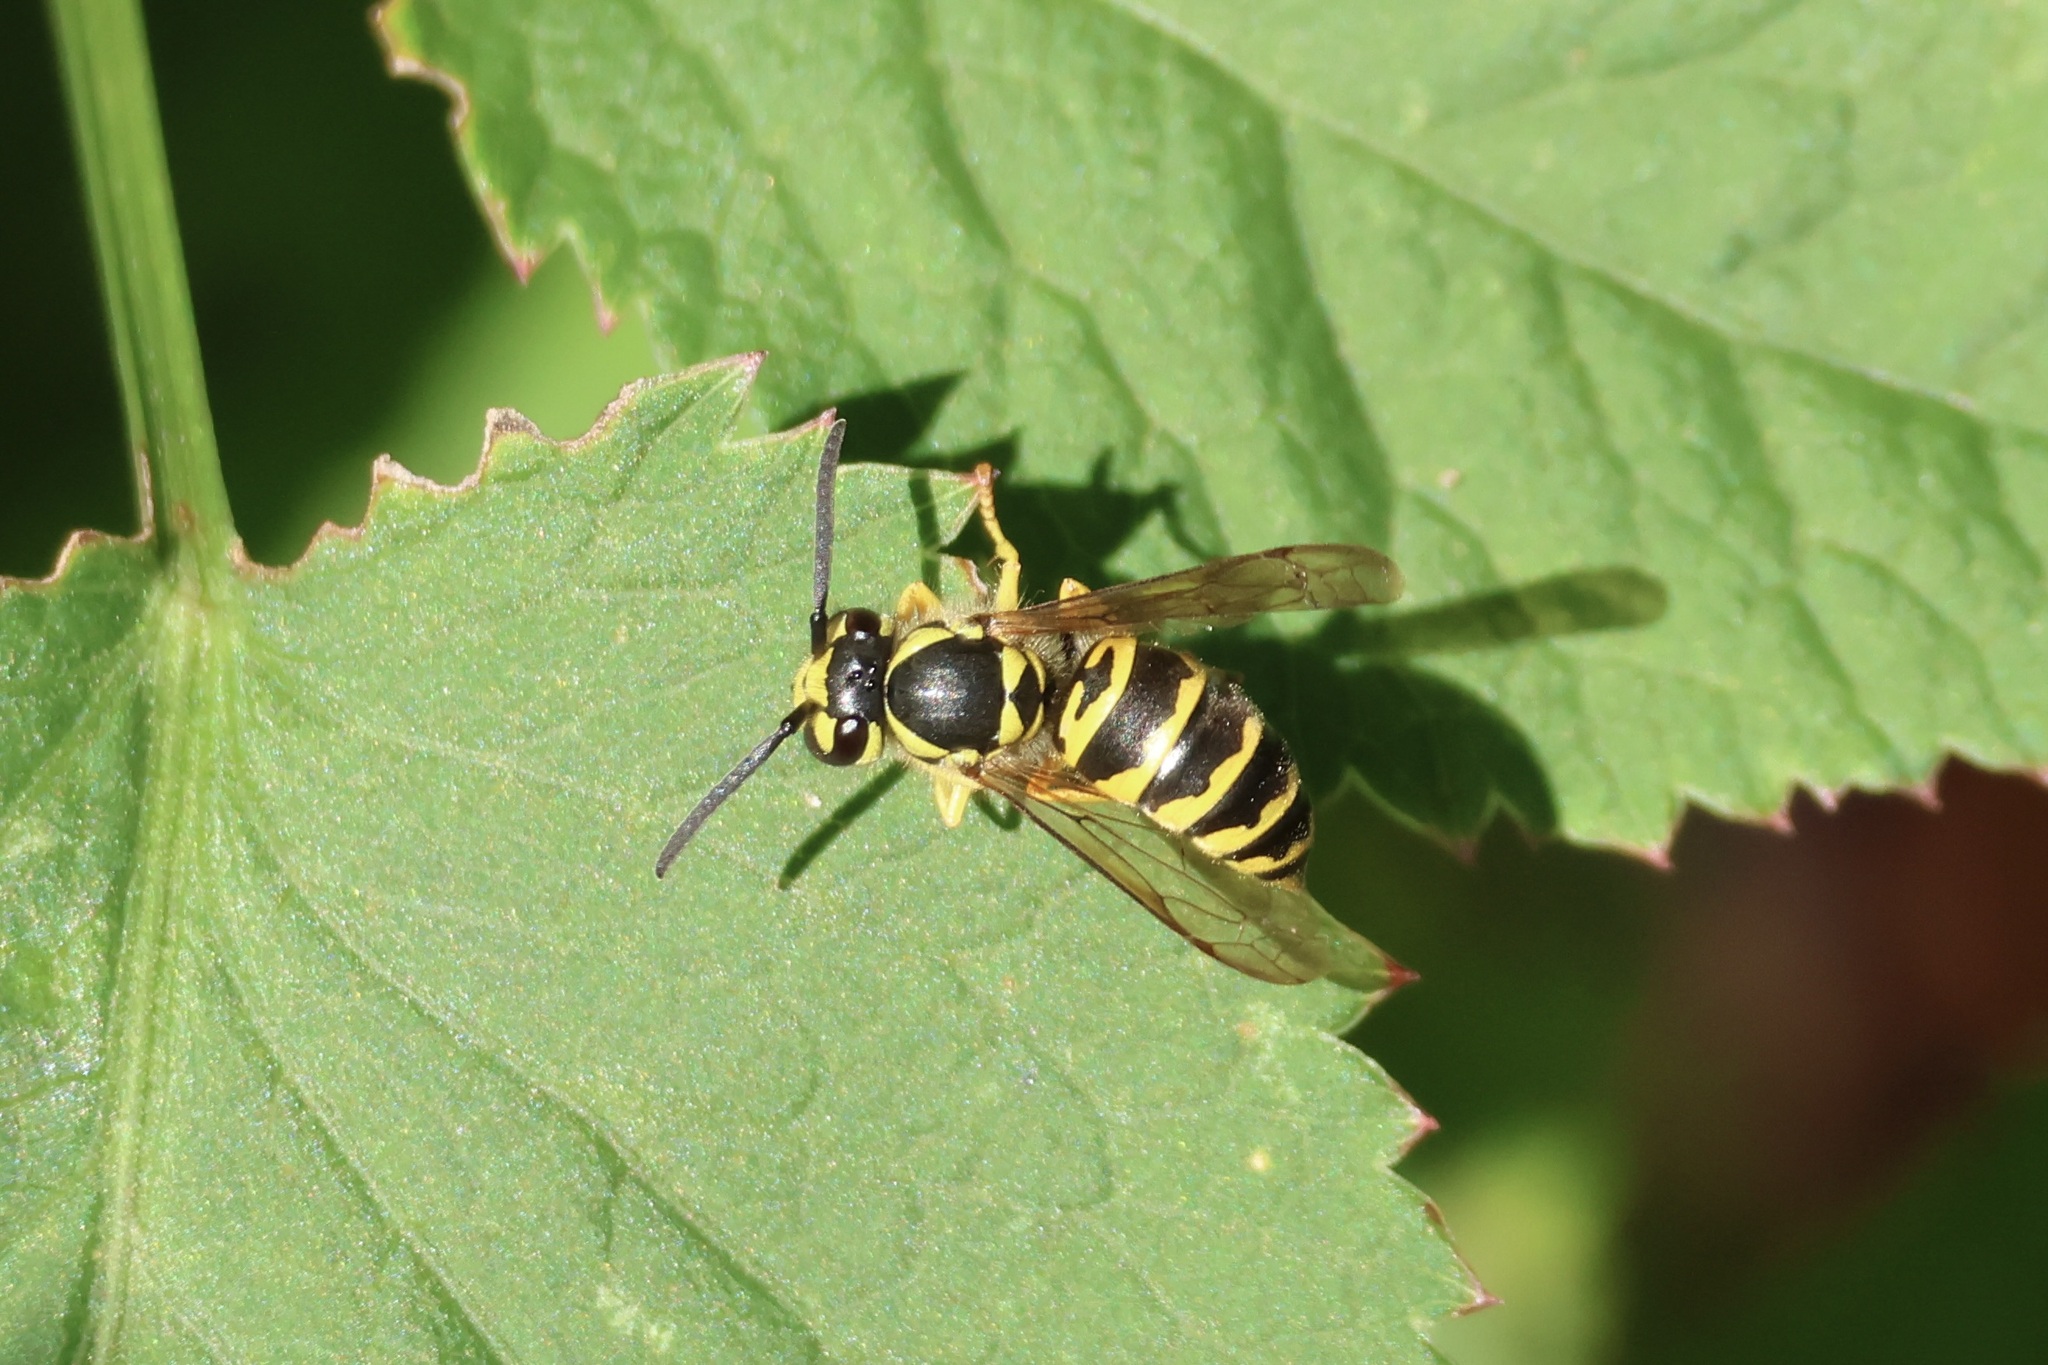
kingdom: Animalia
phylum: Arthropoda
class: Insecta
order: Hymenoptera
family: Vespidae
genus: Vespula
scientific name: Vespula maculifrons
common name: Eastern yellowjacket
